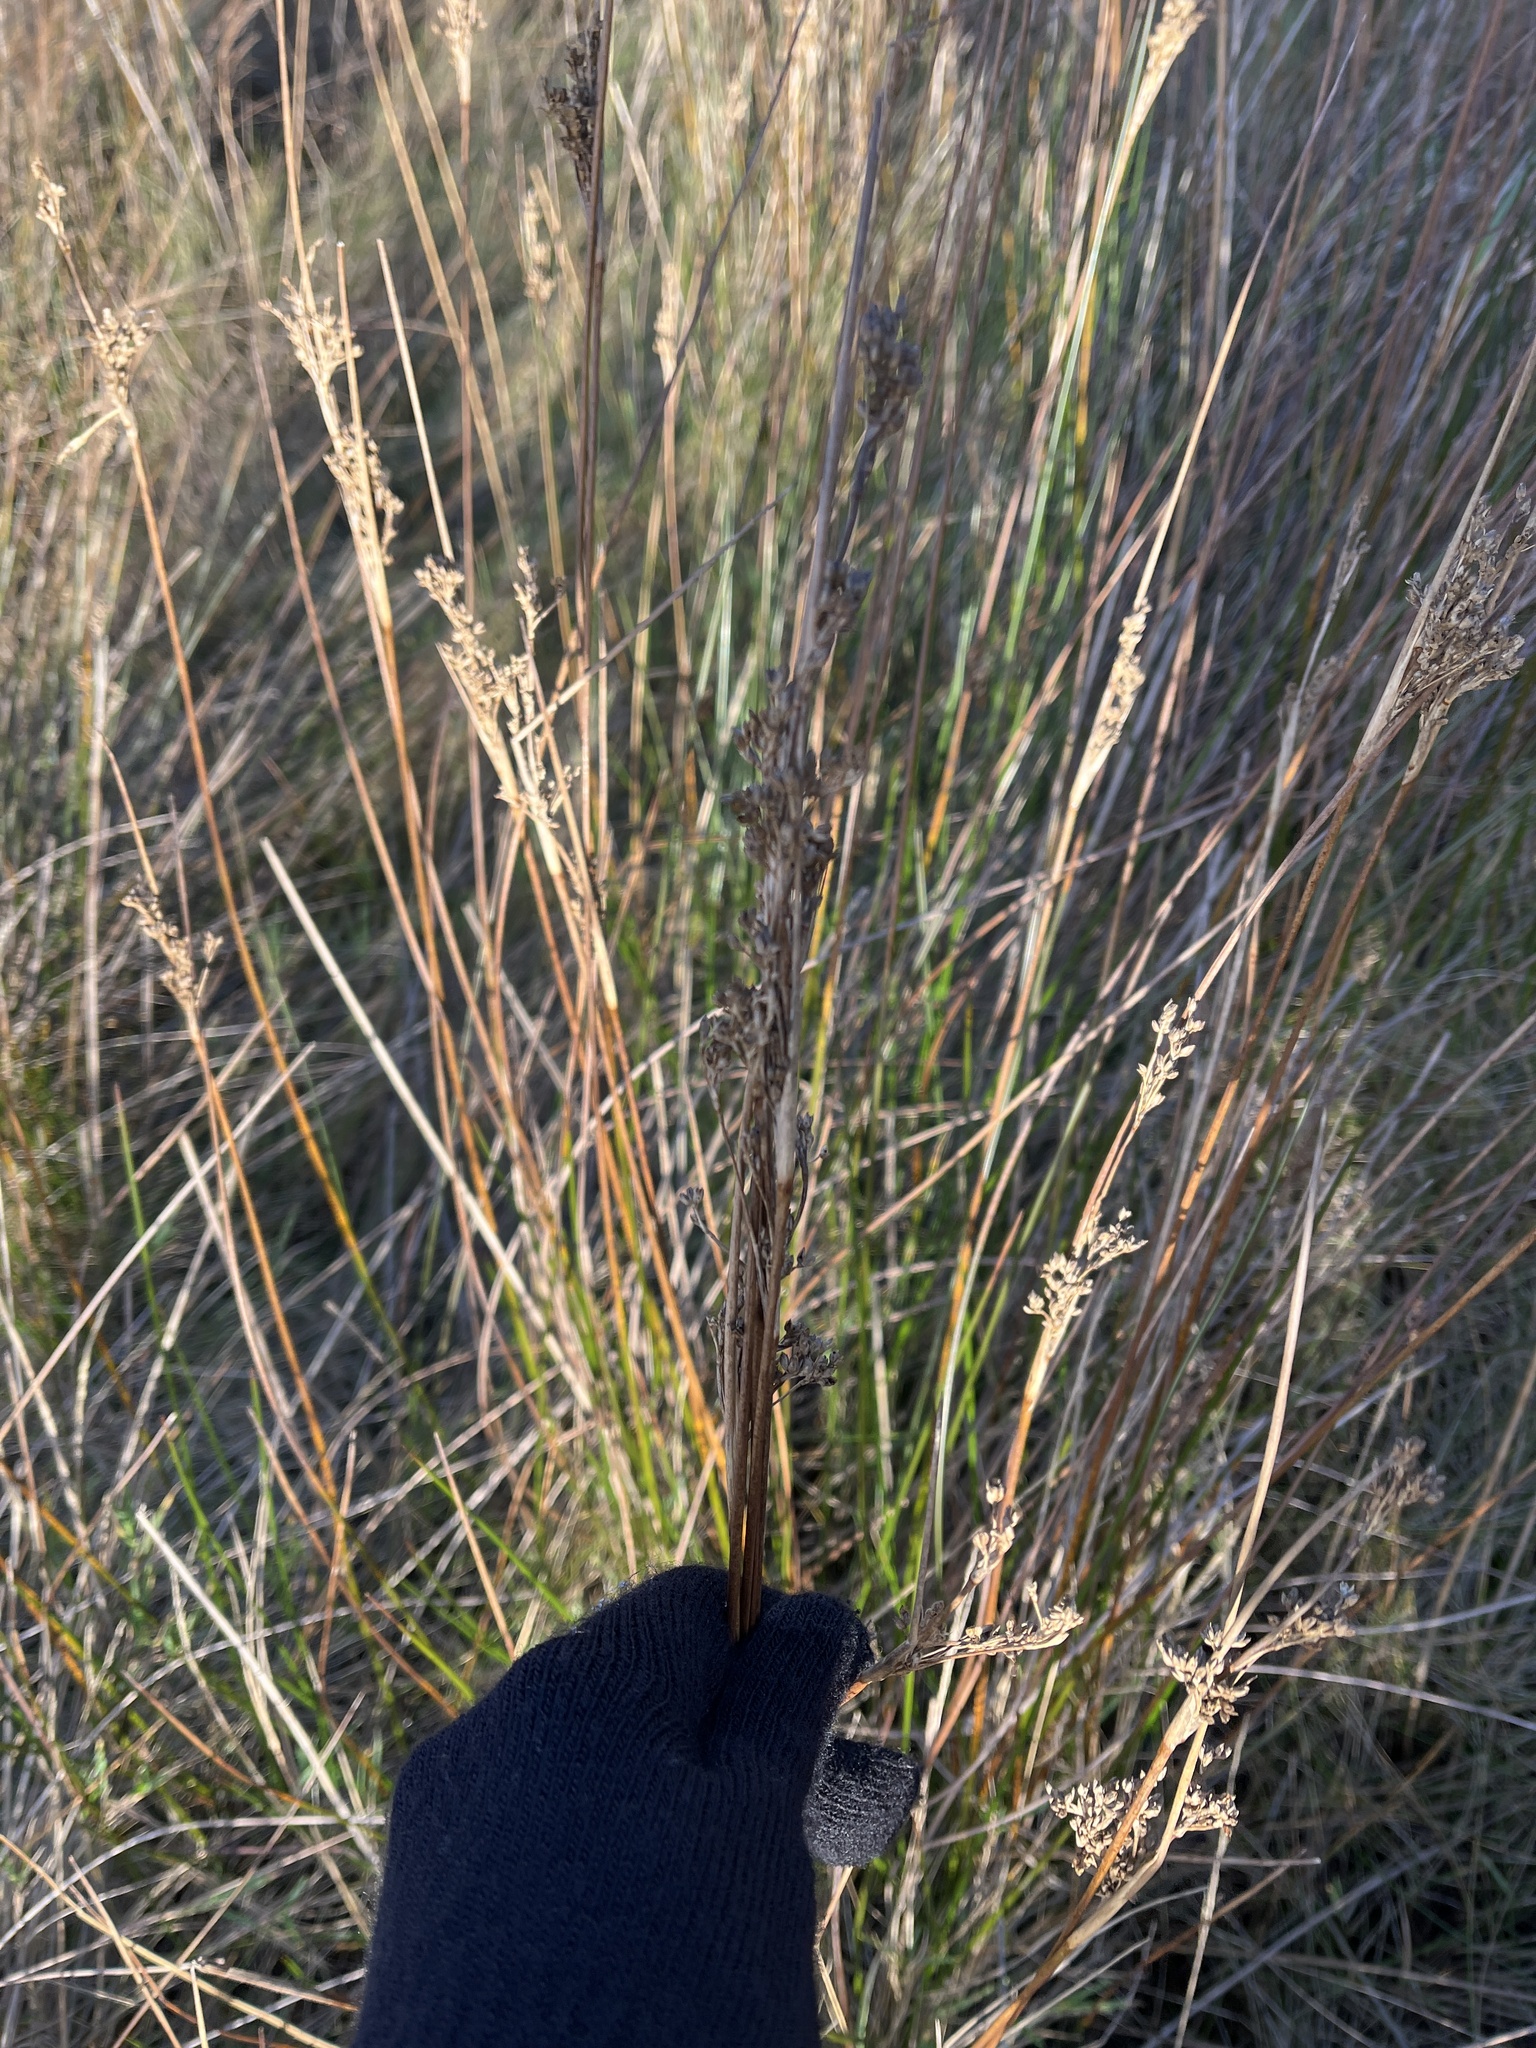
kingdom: Plantae
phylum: Tracheophyta
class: Liliopsida
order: Poales
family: Juncaceae
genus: Juncus
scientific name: Juncus maritimus
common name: Sea rush
